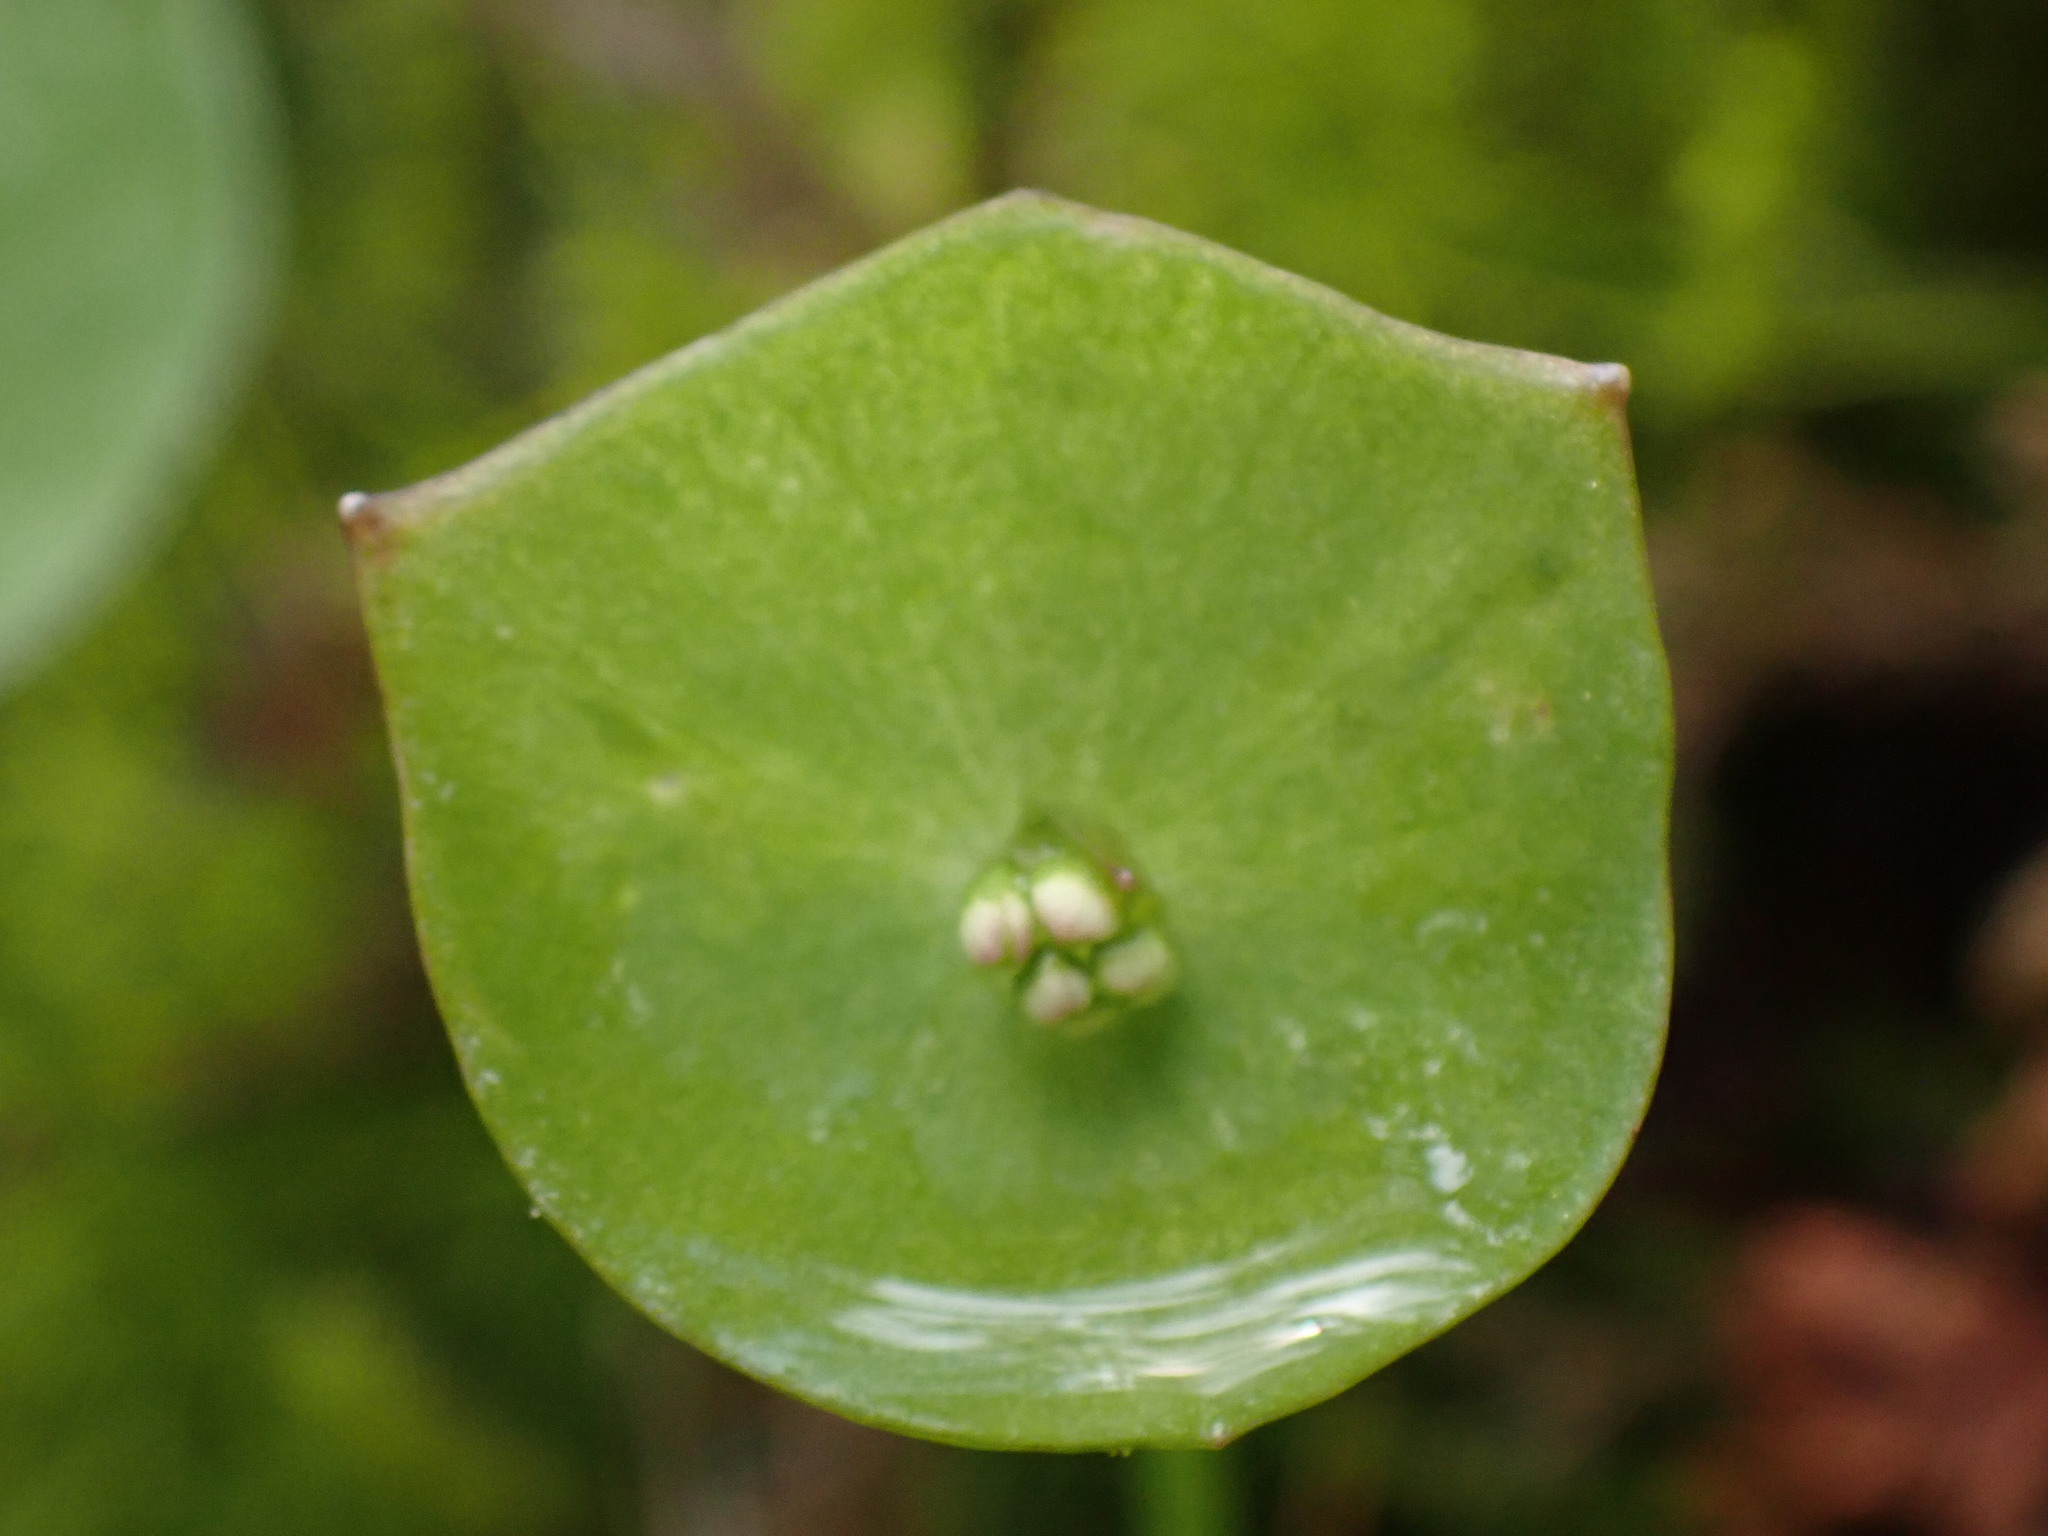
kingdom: Plantae
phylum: Tracheophyta
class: Magnoliopsida
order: Caryophyllales
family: Montiaceae
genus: Claytonia
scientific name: Claytonia perfoliata
